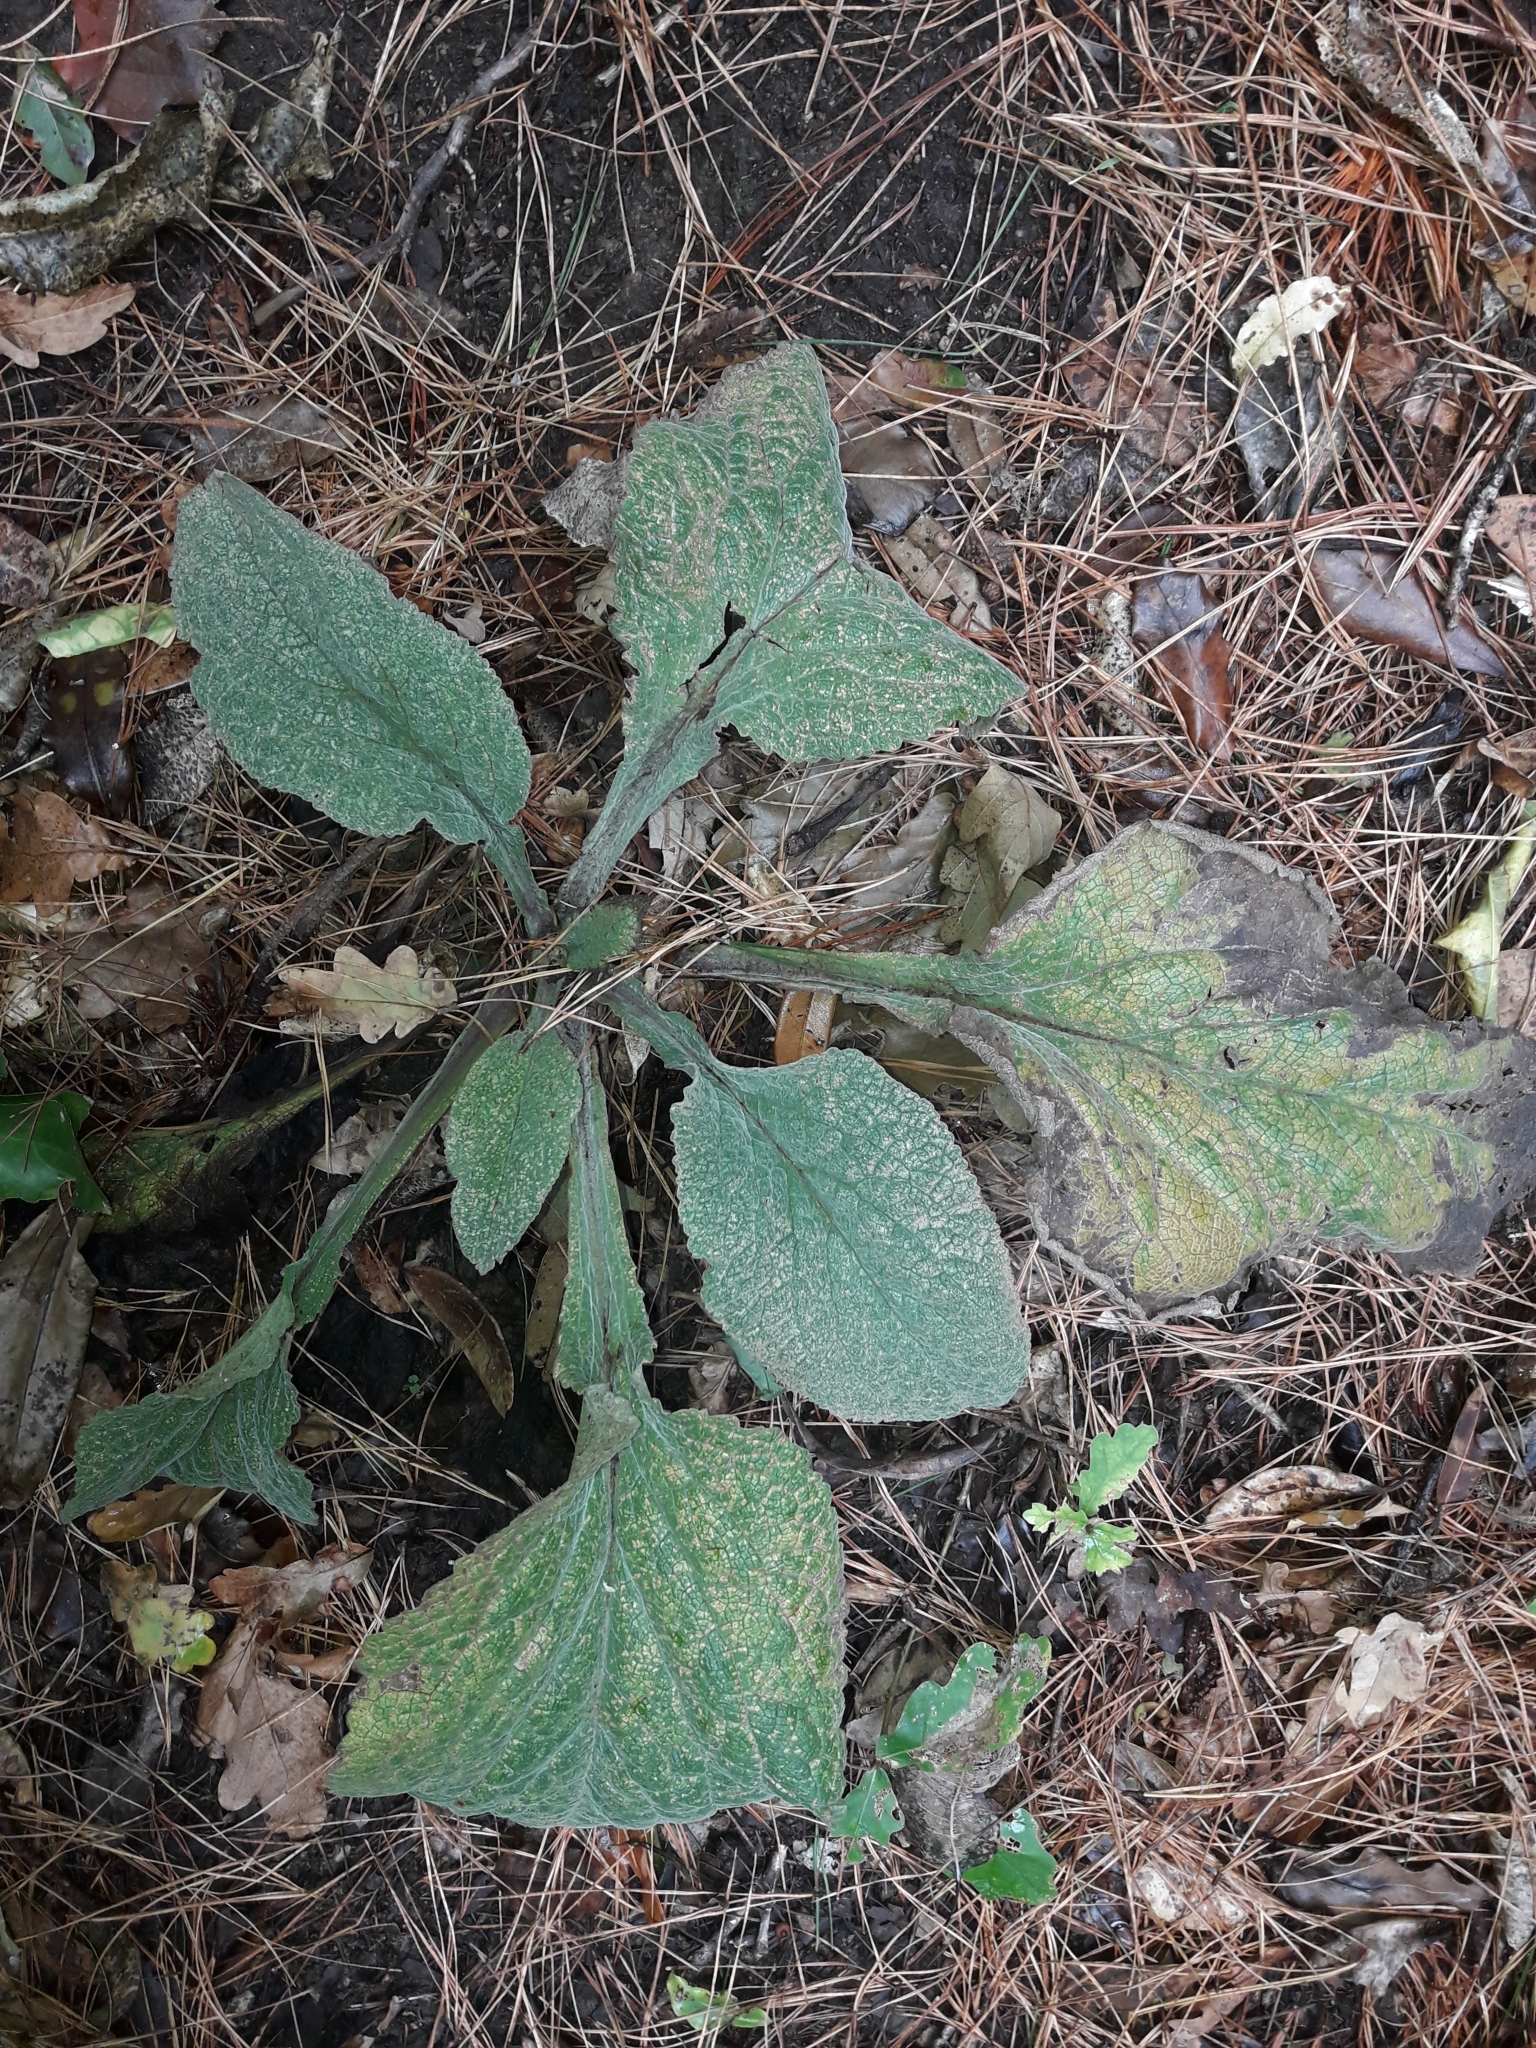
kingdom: Plantae
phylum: Tracheophyta
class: Magnoliopsida
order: Lamiales
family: Plantaginaceae
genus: Digitalis
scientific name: Digitalis purpurea
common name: Foxglove
